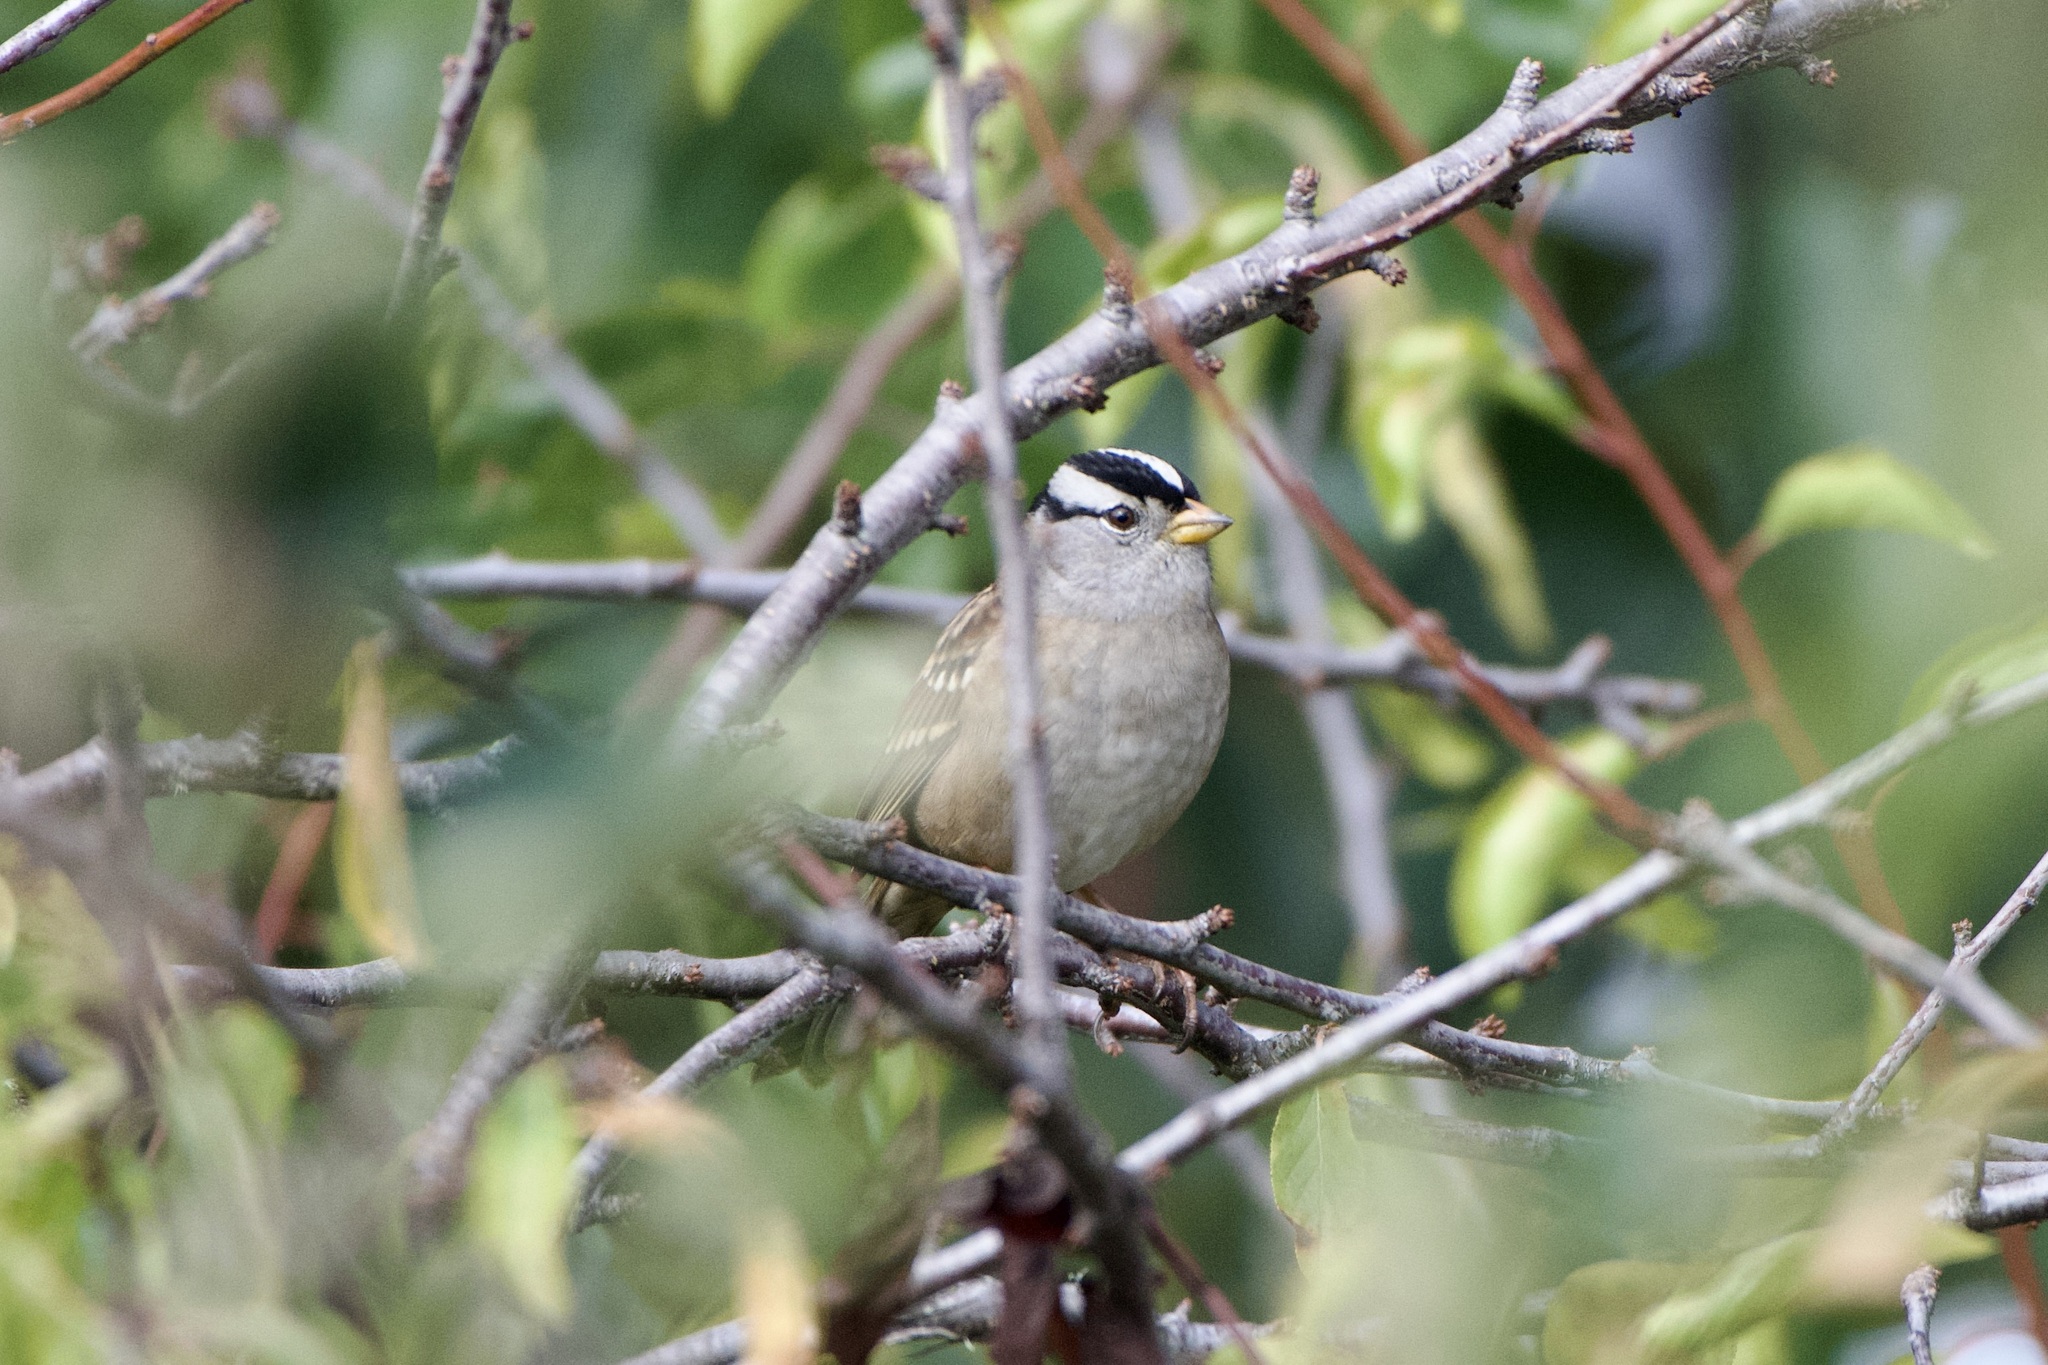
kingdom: Animalia
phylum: Chordata
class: Aves
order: Passeriformes
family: Passerellidae
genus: Zonotrichia
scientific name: Zonotrichia leucophrys
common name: White-crowned sparrow
